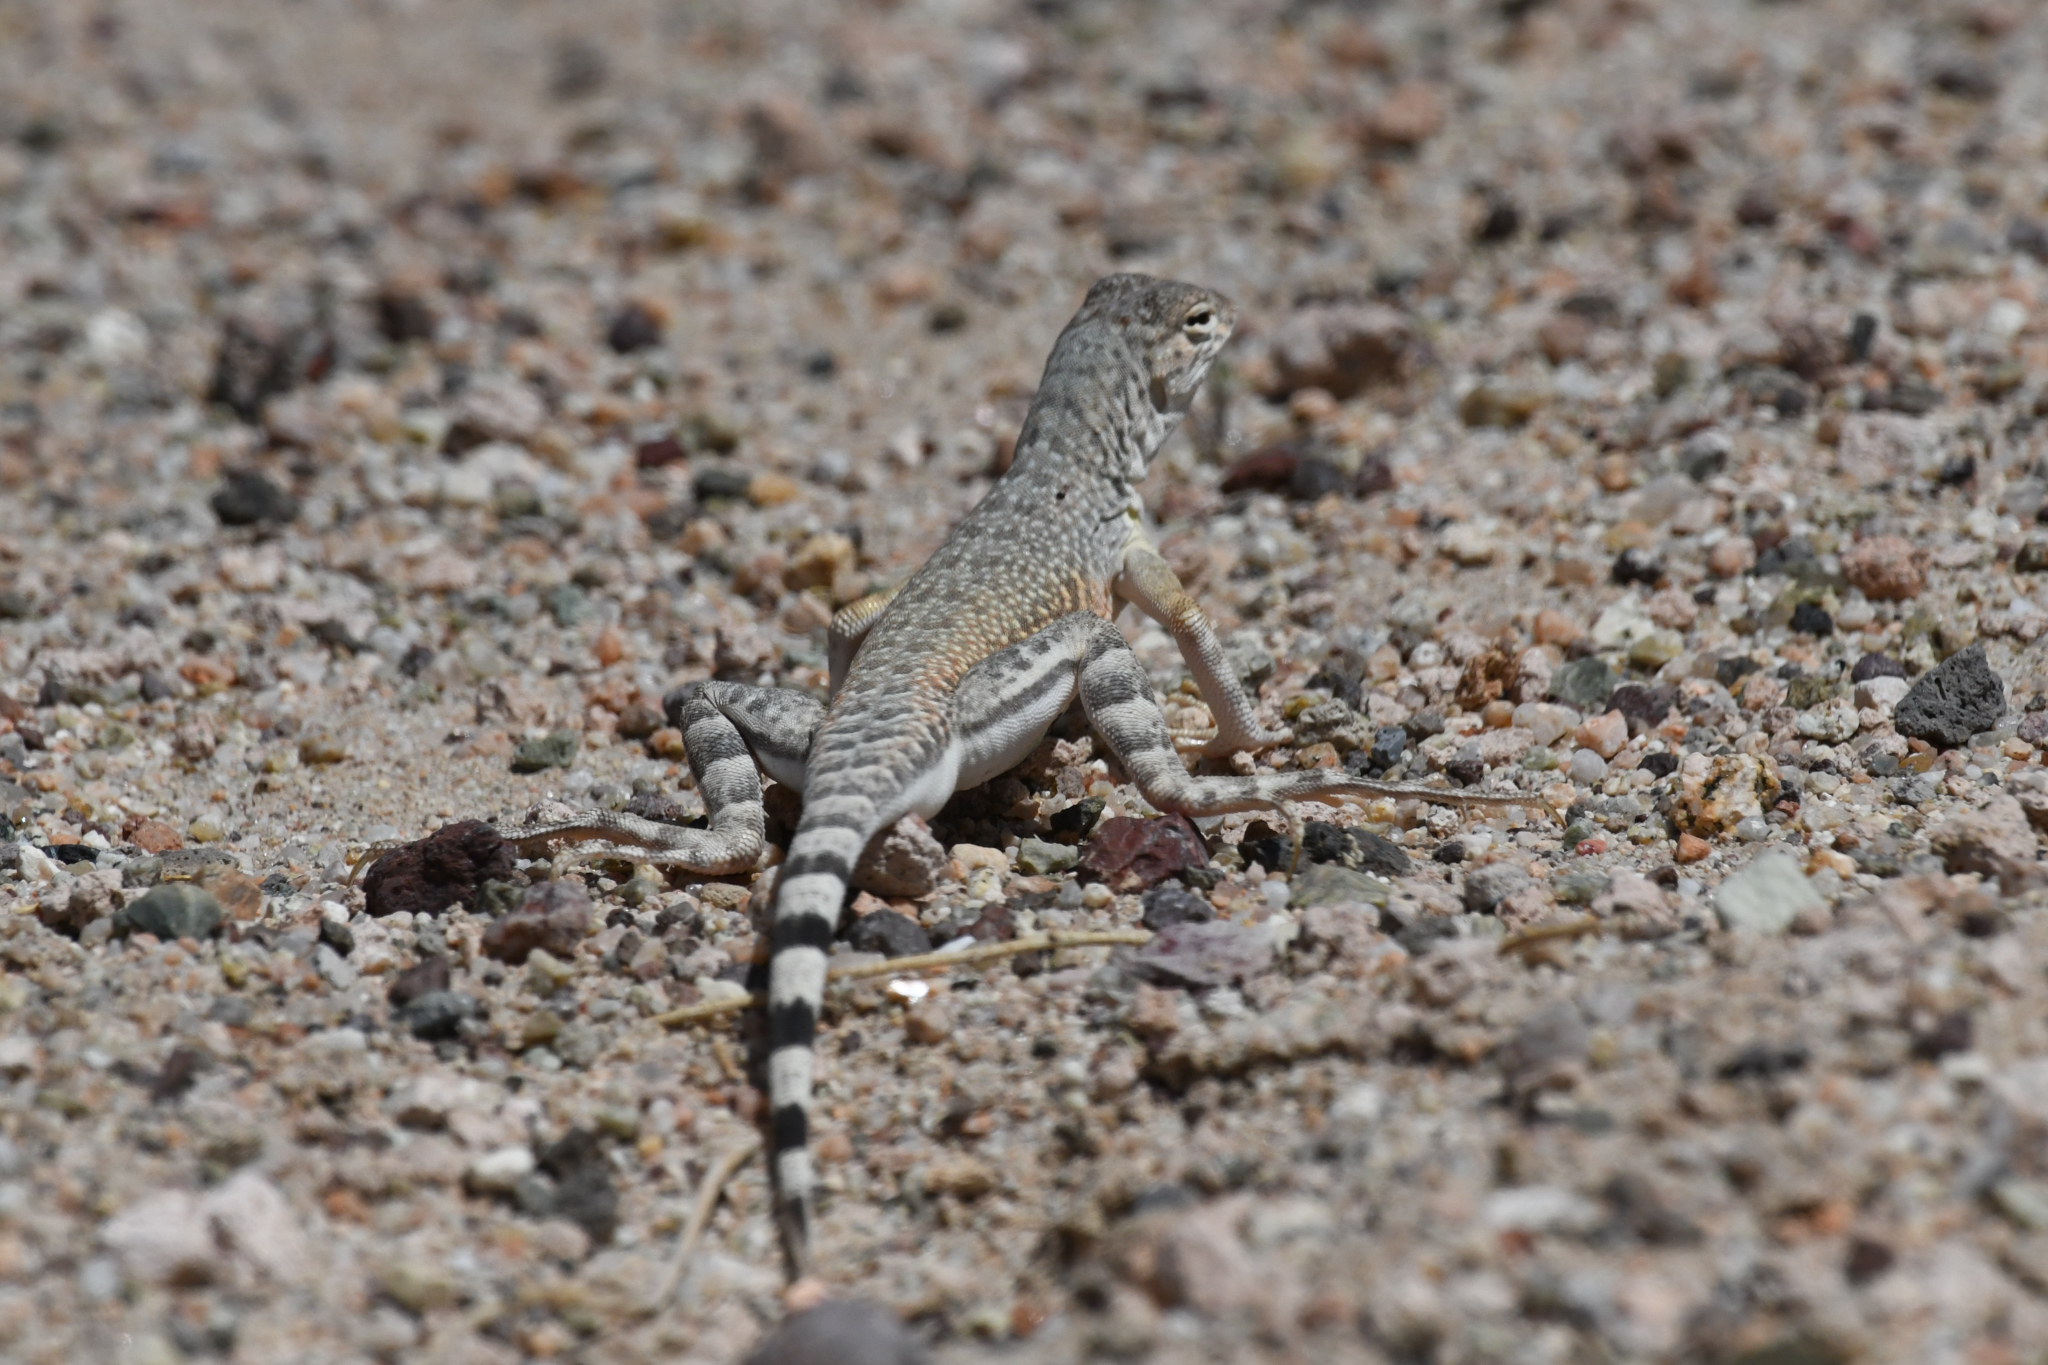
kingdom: Animalia
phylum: Chordata
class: Squamata
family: Phrynosomatidae
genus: Callisaurus
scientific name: Callisaurus draconoides
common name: Zebra-tailed lizard
